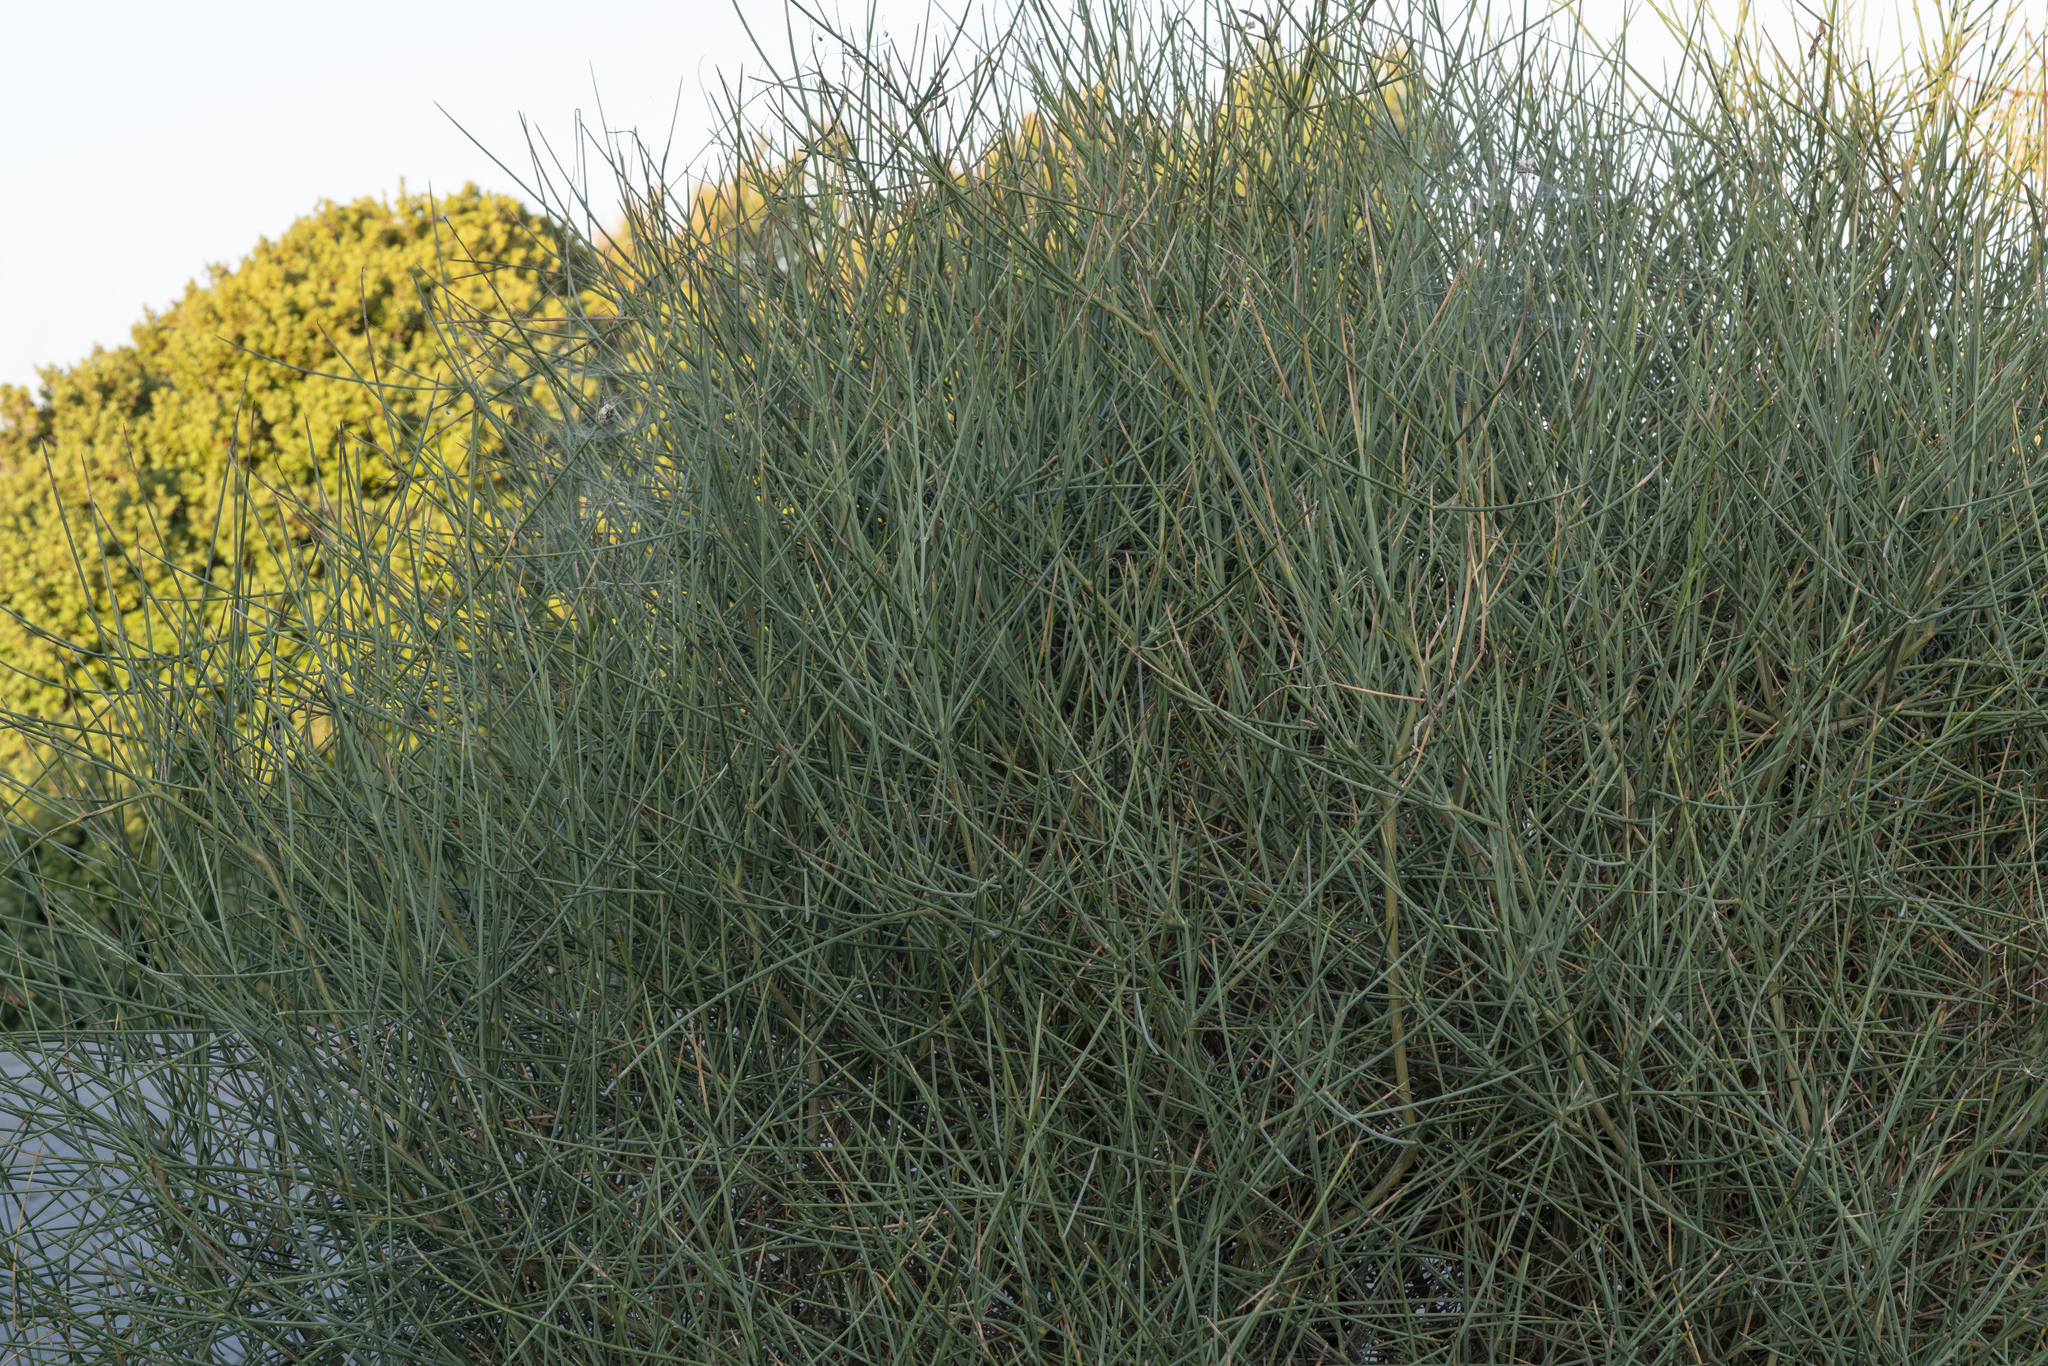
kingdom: Plantae
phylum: Tracheophyta
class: Magnoliopsida
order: Fabales
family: Fabaceae
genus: Spartium
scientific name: Spartium junceum
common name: Spanish broom
